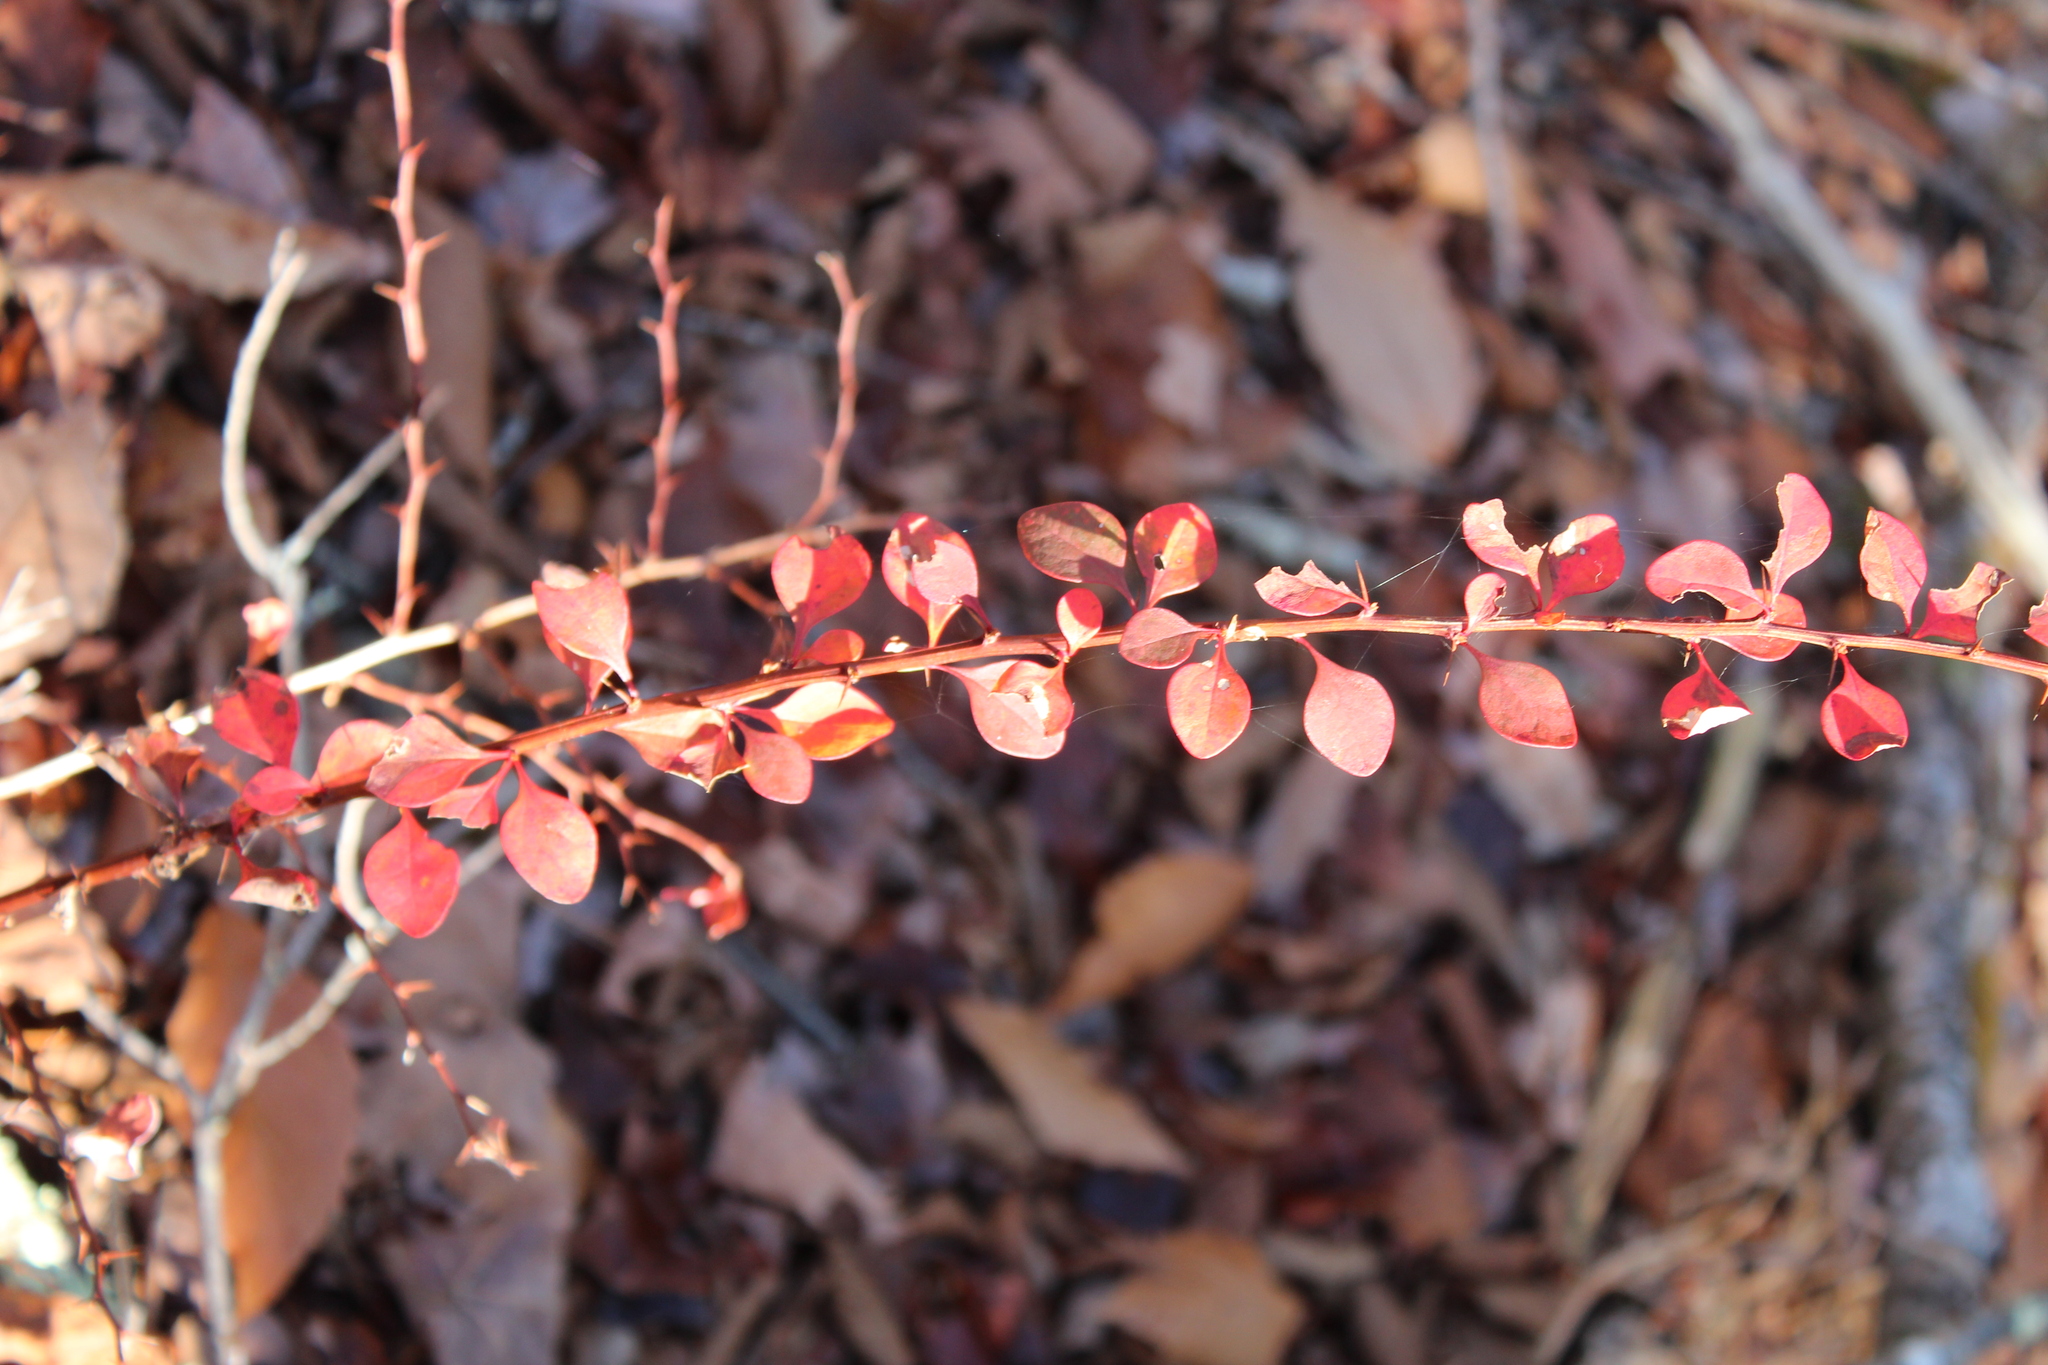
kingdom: Plantae
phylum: Tracheophyta
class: Magnoliopsida
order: Ranunculales
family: Berberidaceae
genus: Berberis
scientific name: Berberis thunbergii
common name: Japanese barberry
